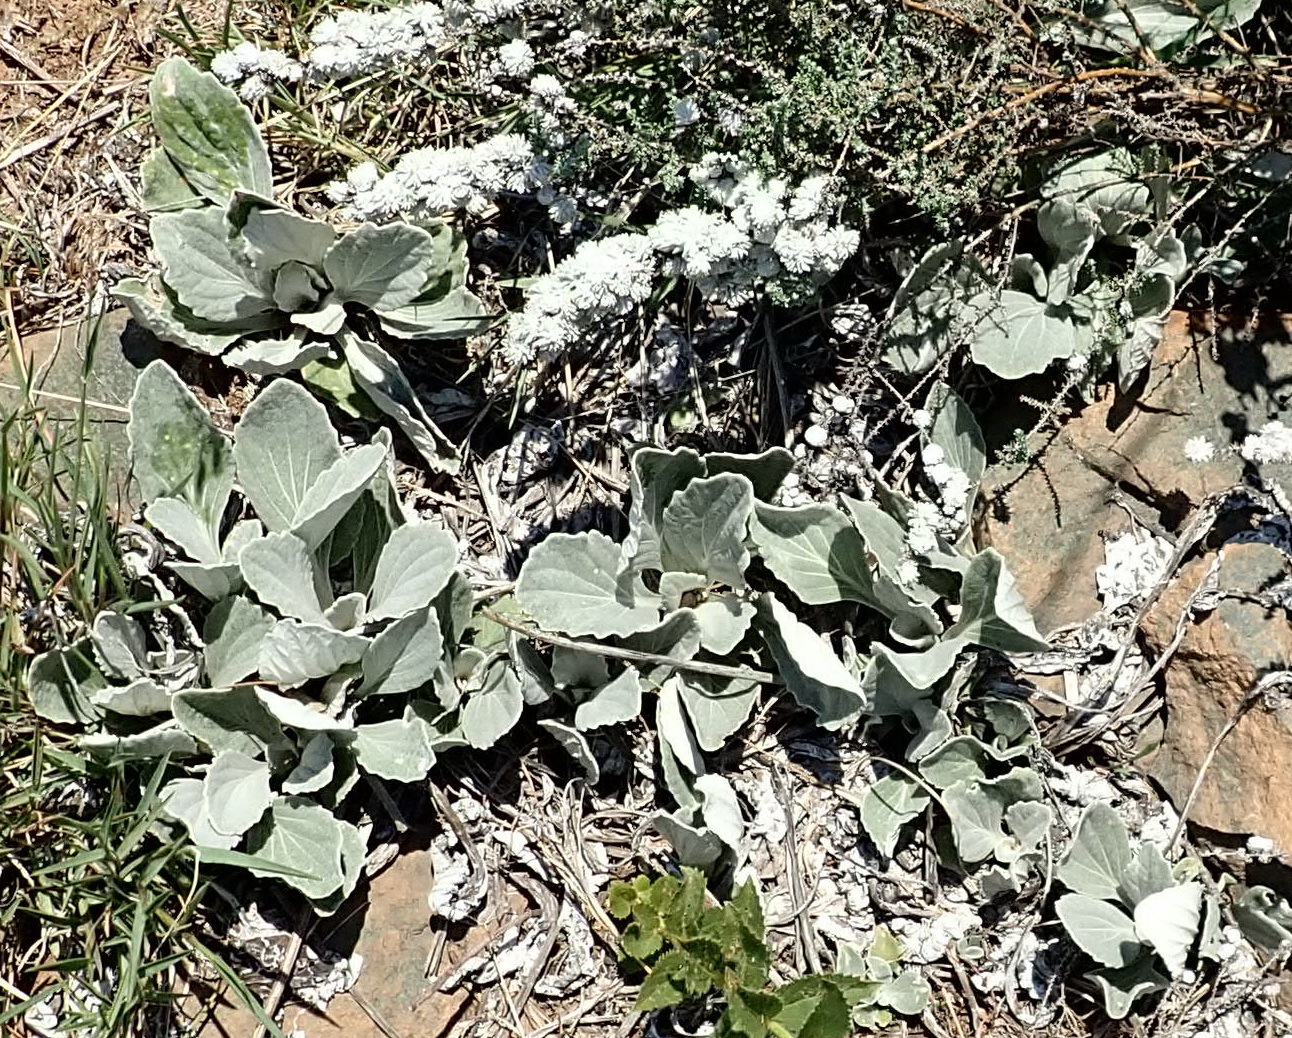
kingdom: Plantae
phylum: Tracheophyta
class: Magnoliopsida
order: Asterales
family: Asteraceae
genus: Haplocarpha
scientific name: Haplocarpha scaposa
